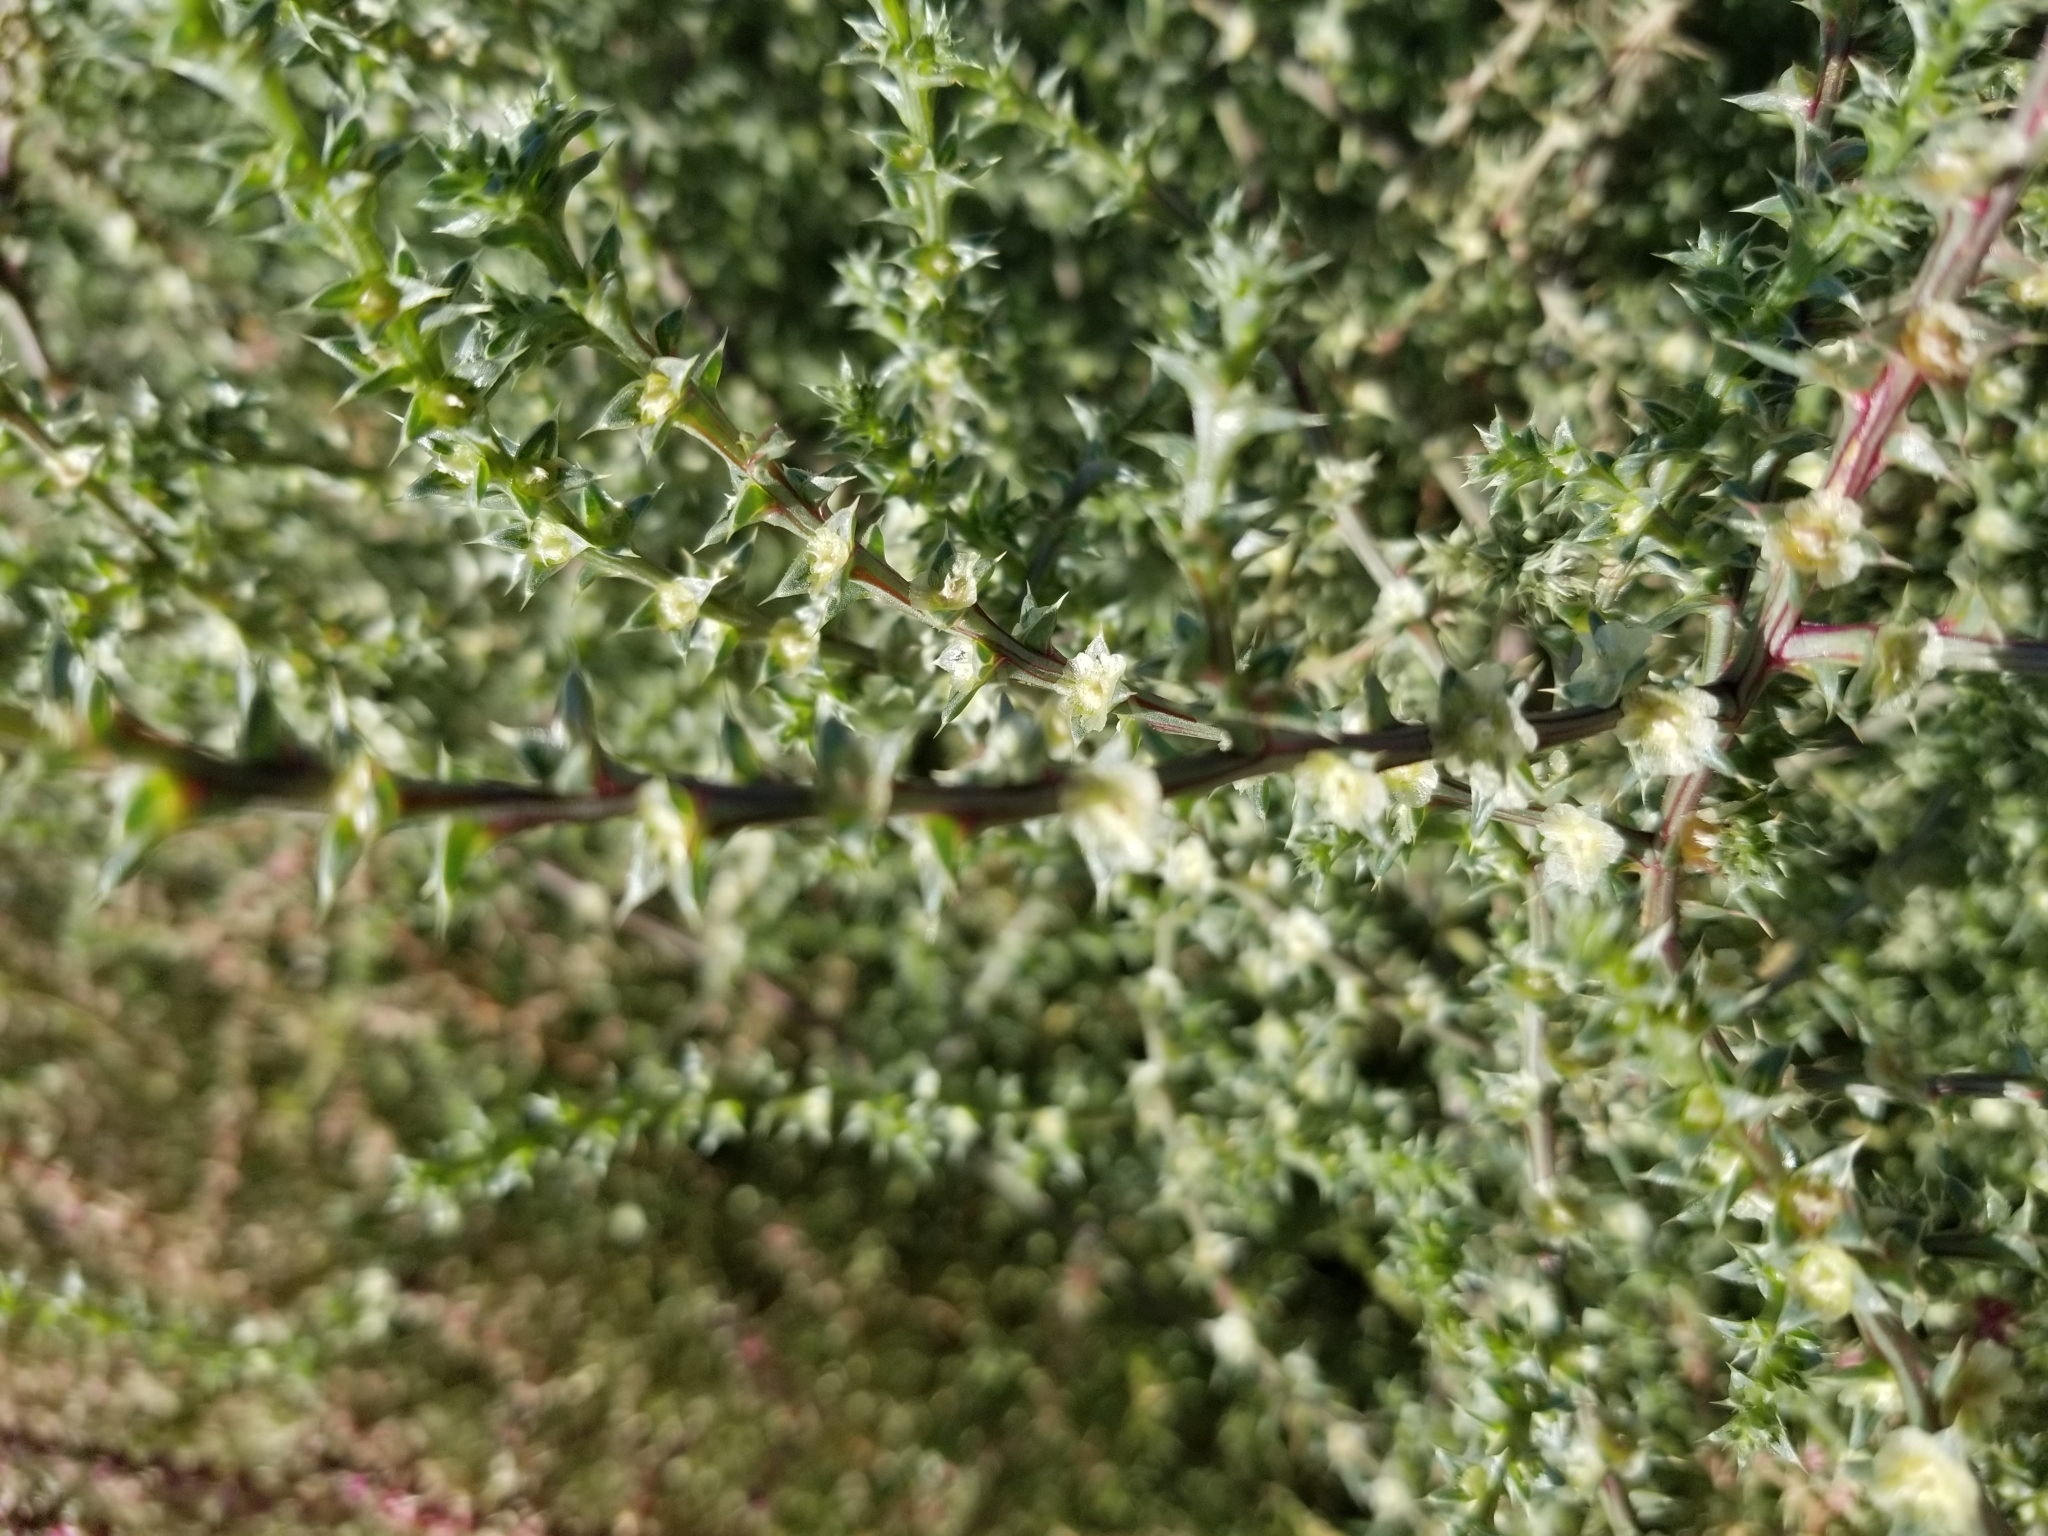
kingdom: Plantae
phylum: Tracheophyta
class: Magnoliopsida
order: Caryophyllales
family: Amaranthaceae
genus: Salsola
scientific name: Salsola tragus
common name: Prickly russian thistle
